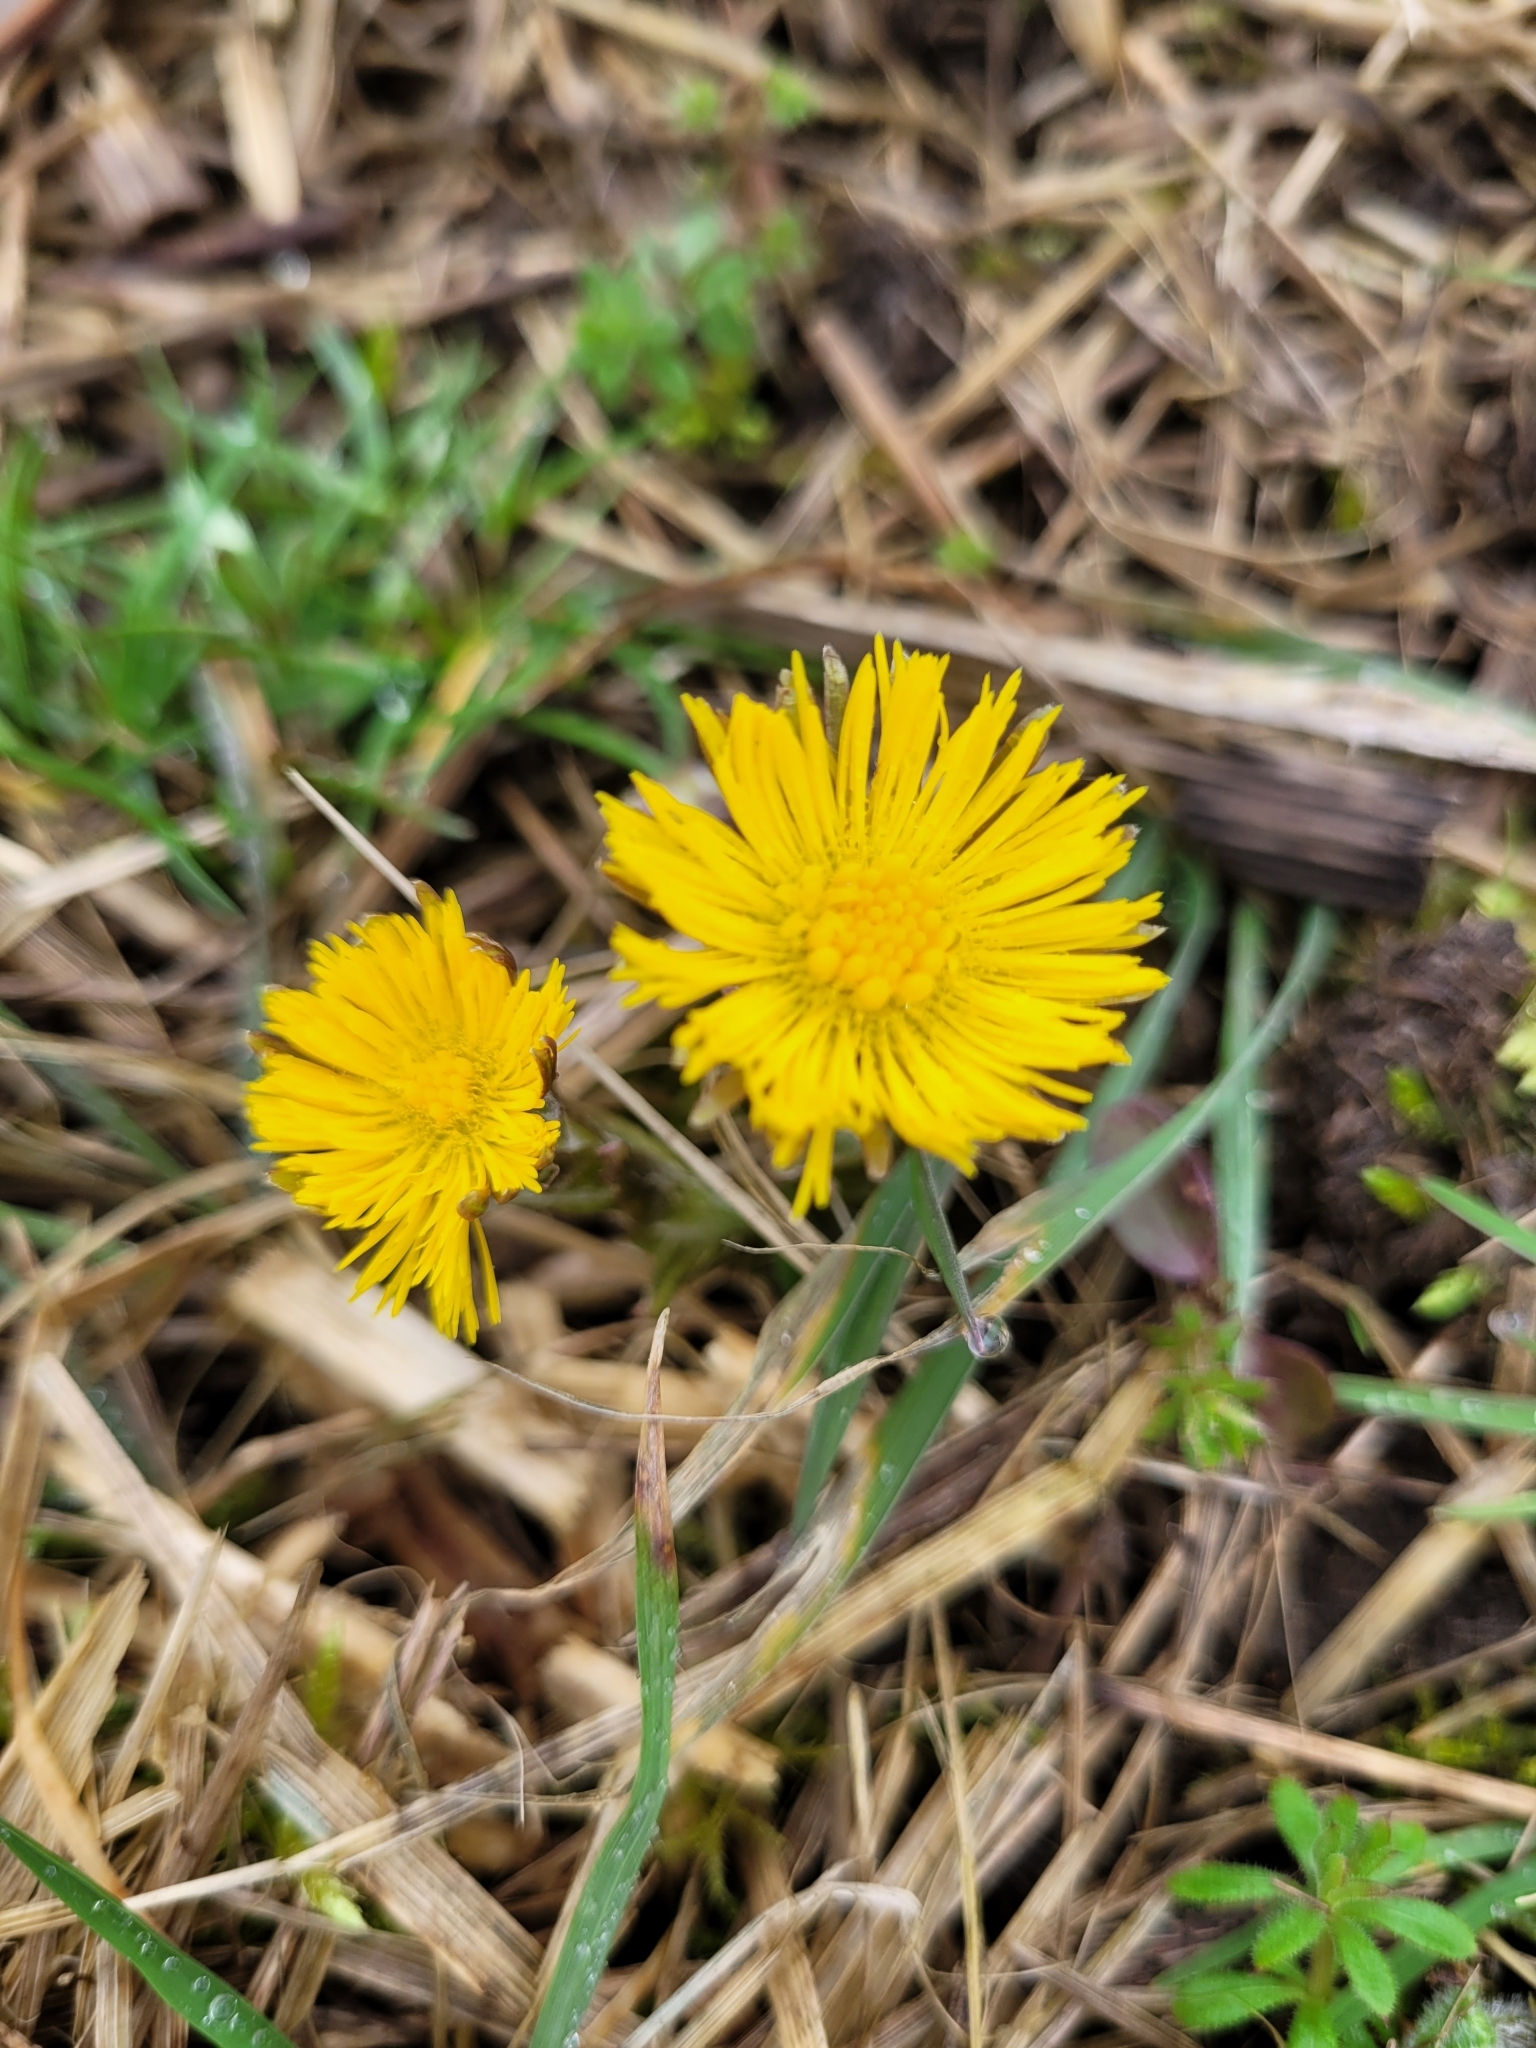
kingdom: Plantae
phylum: Tracheophyta
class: Magnoliopsida
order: Asterales
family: Asteraceae
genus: Tussilago
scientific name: Tussilago farfara
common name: Coltsfoot
